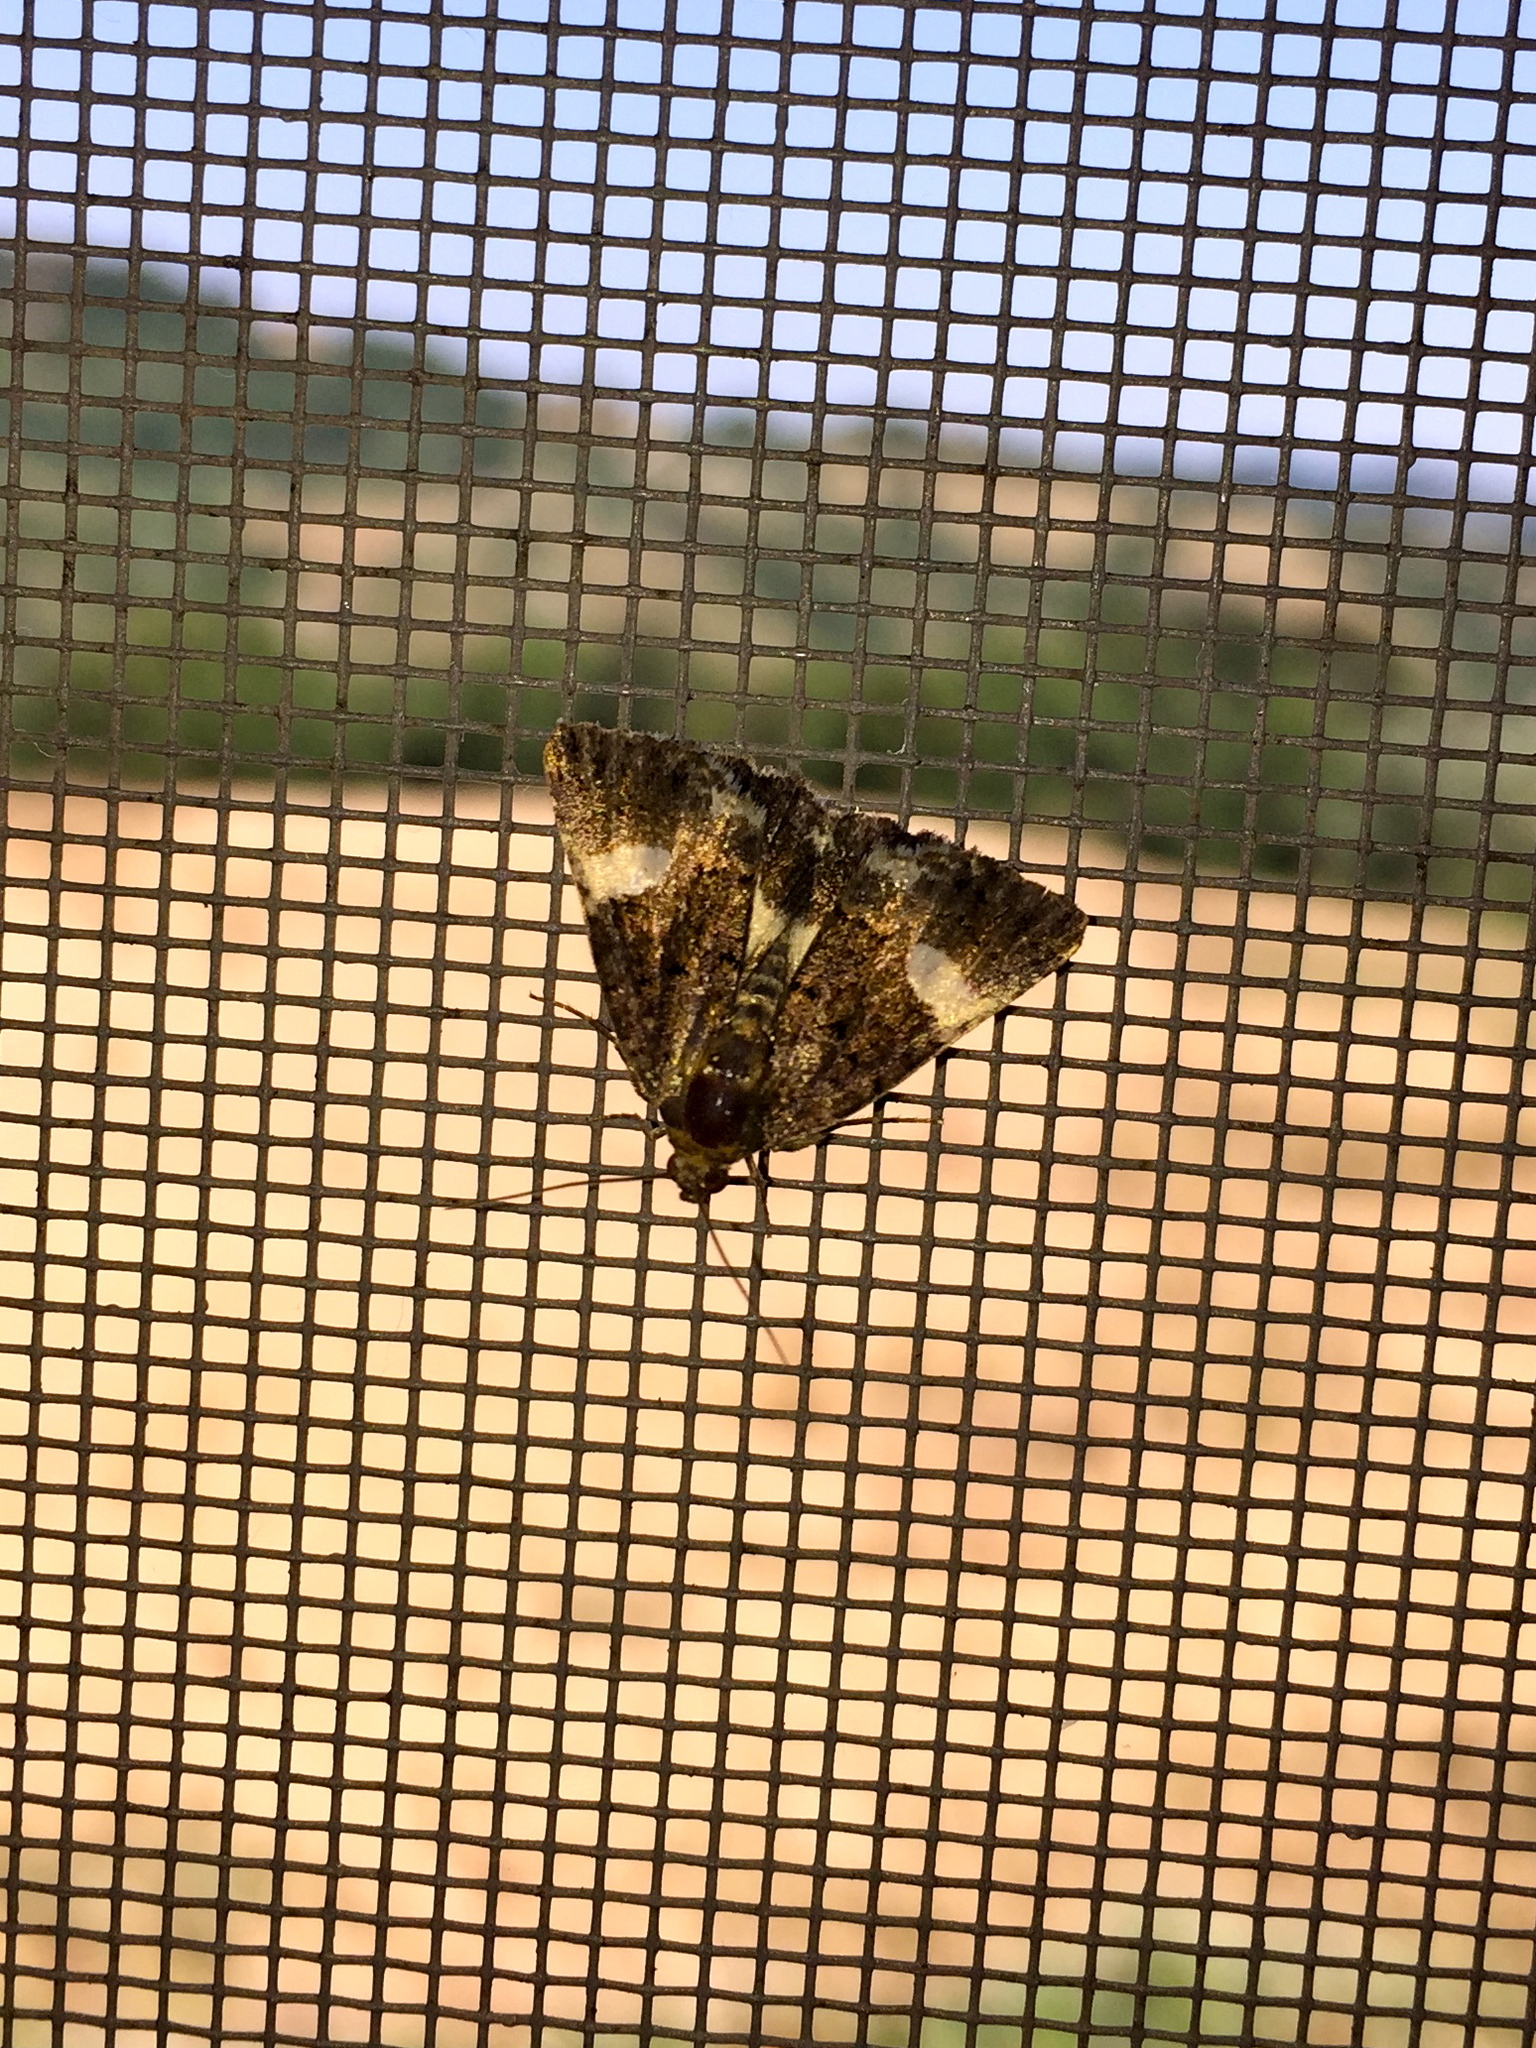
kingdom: Animalia
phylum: Arthropoda
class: Insecta
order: Lepidoptera
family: Erebidae
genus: Tyta
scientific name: Tyta luctuosa
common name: Four-spotted
